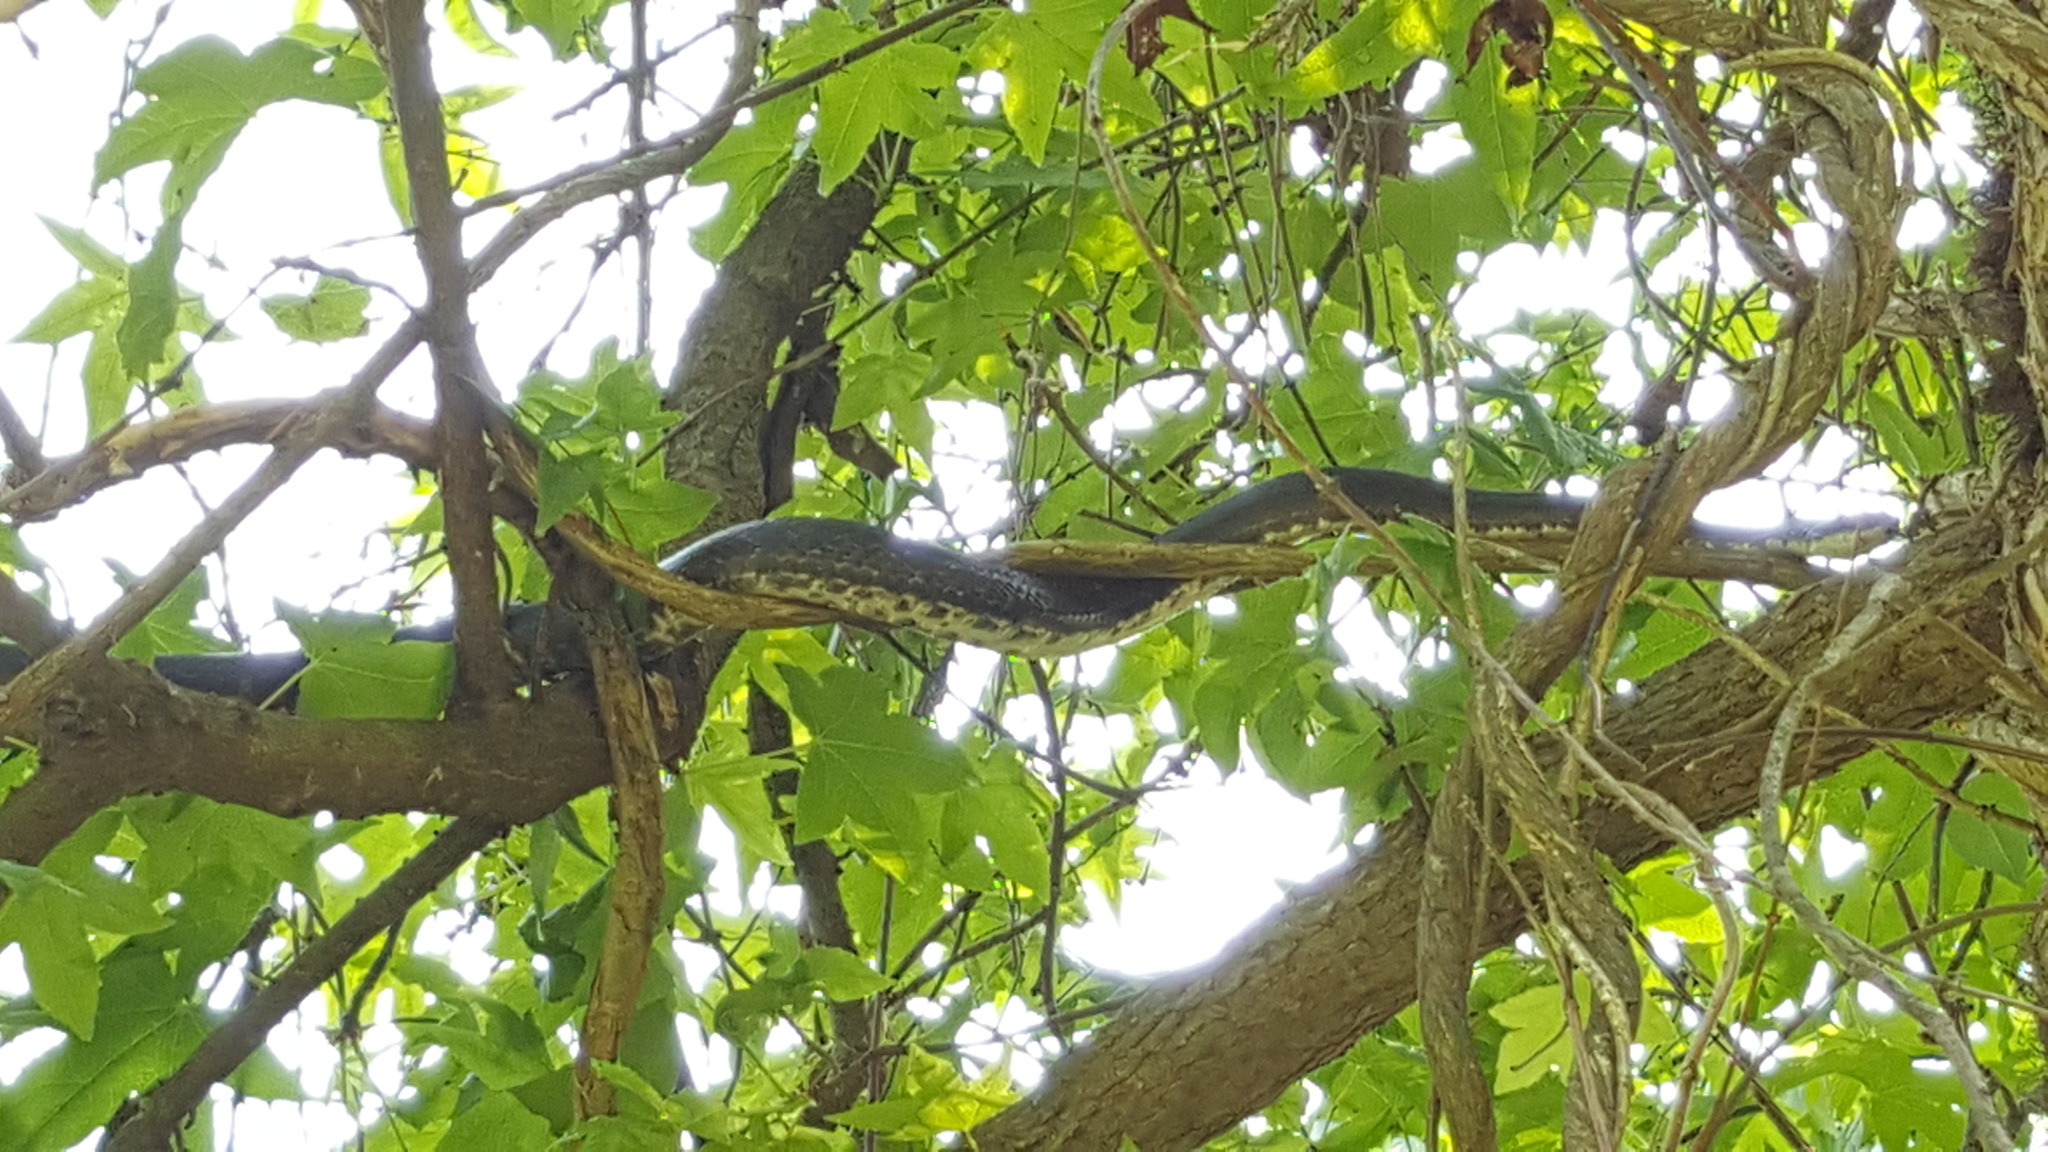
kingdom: Animalia
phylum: Chordata
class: Squamata
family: Colubridae
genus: Pantherophis
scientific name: Pantherophis alleghaniensis
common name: Eastern rat snake
